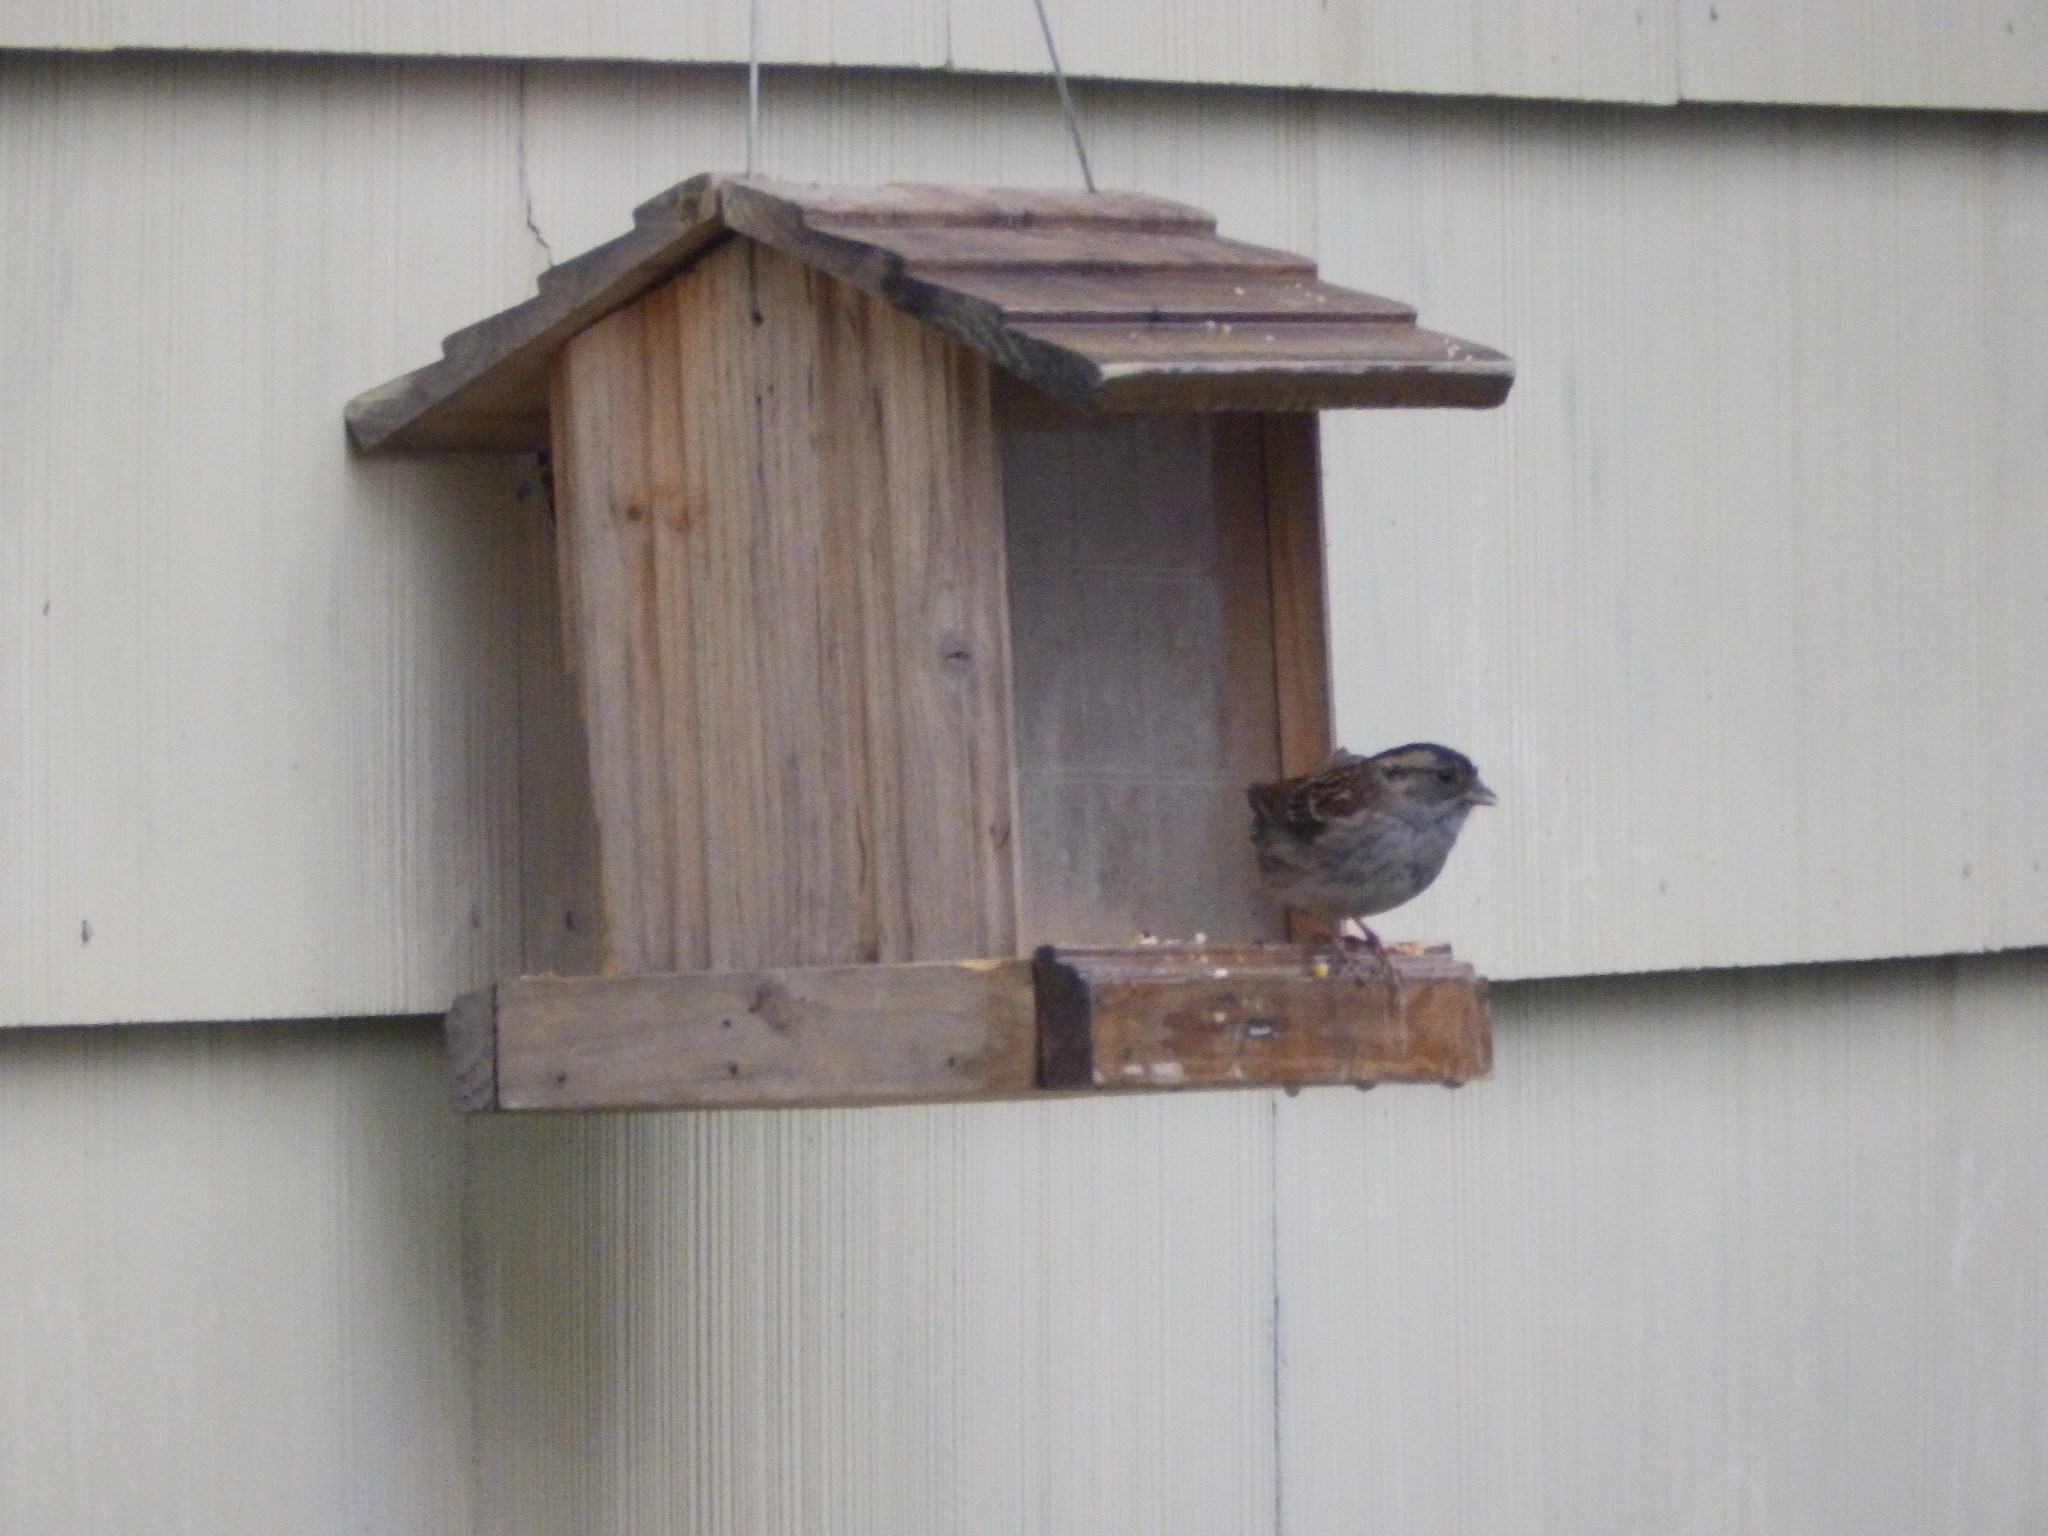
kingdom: Animalia
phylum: Chordata
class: Aves
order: Passeriformes
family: Passerellidae
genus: Zonotrichia
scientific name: Zonotrichia albicollis
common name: White-throated sparrow
